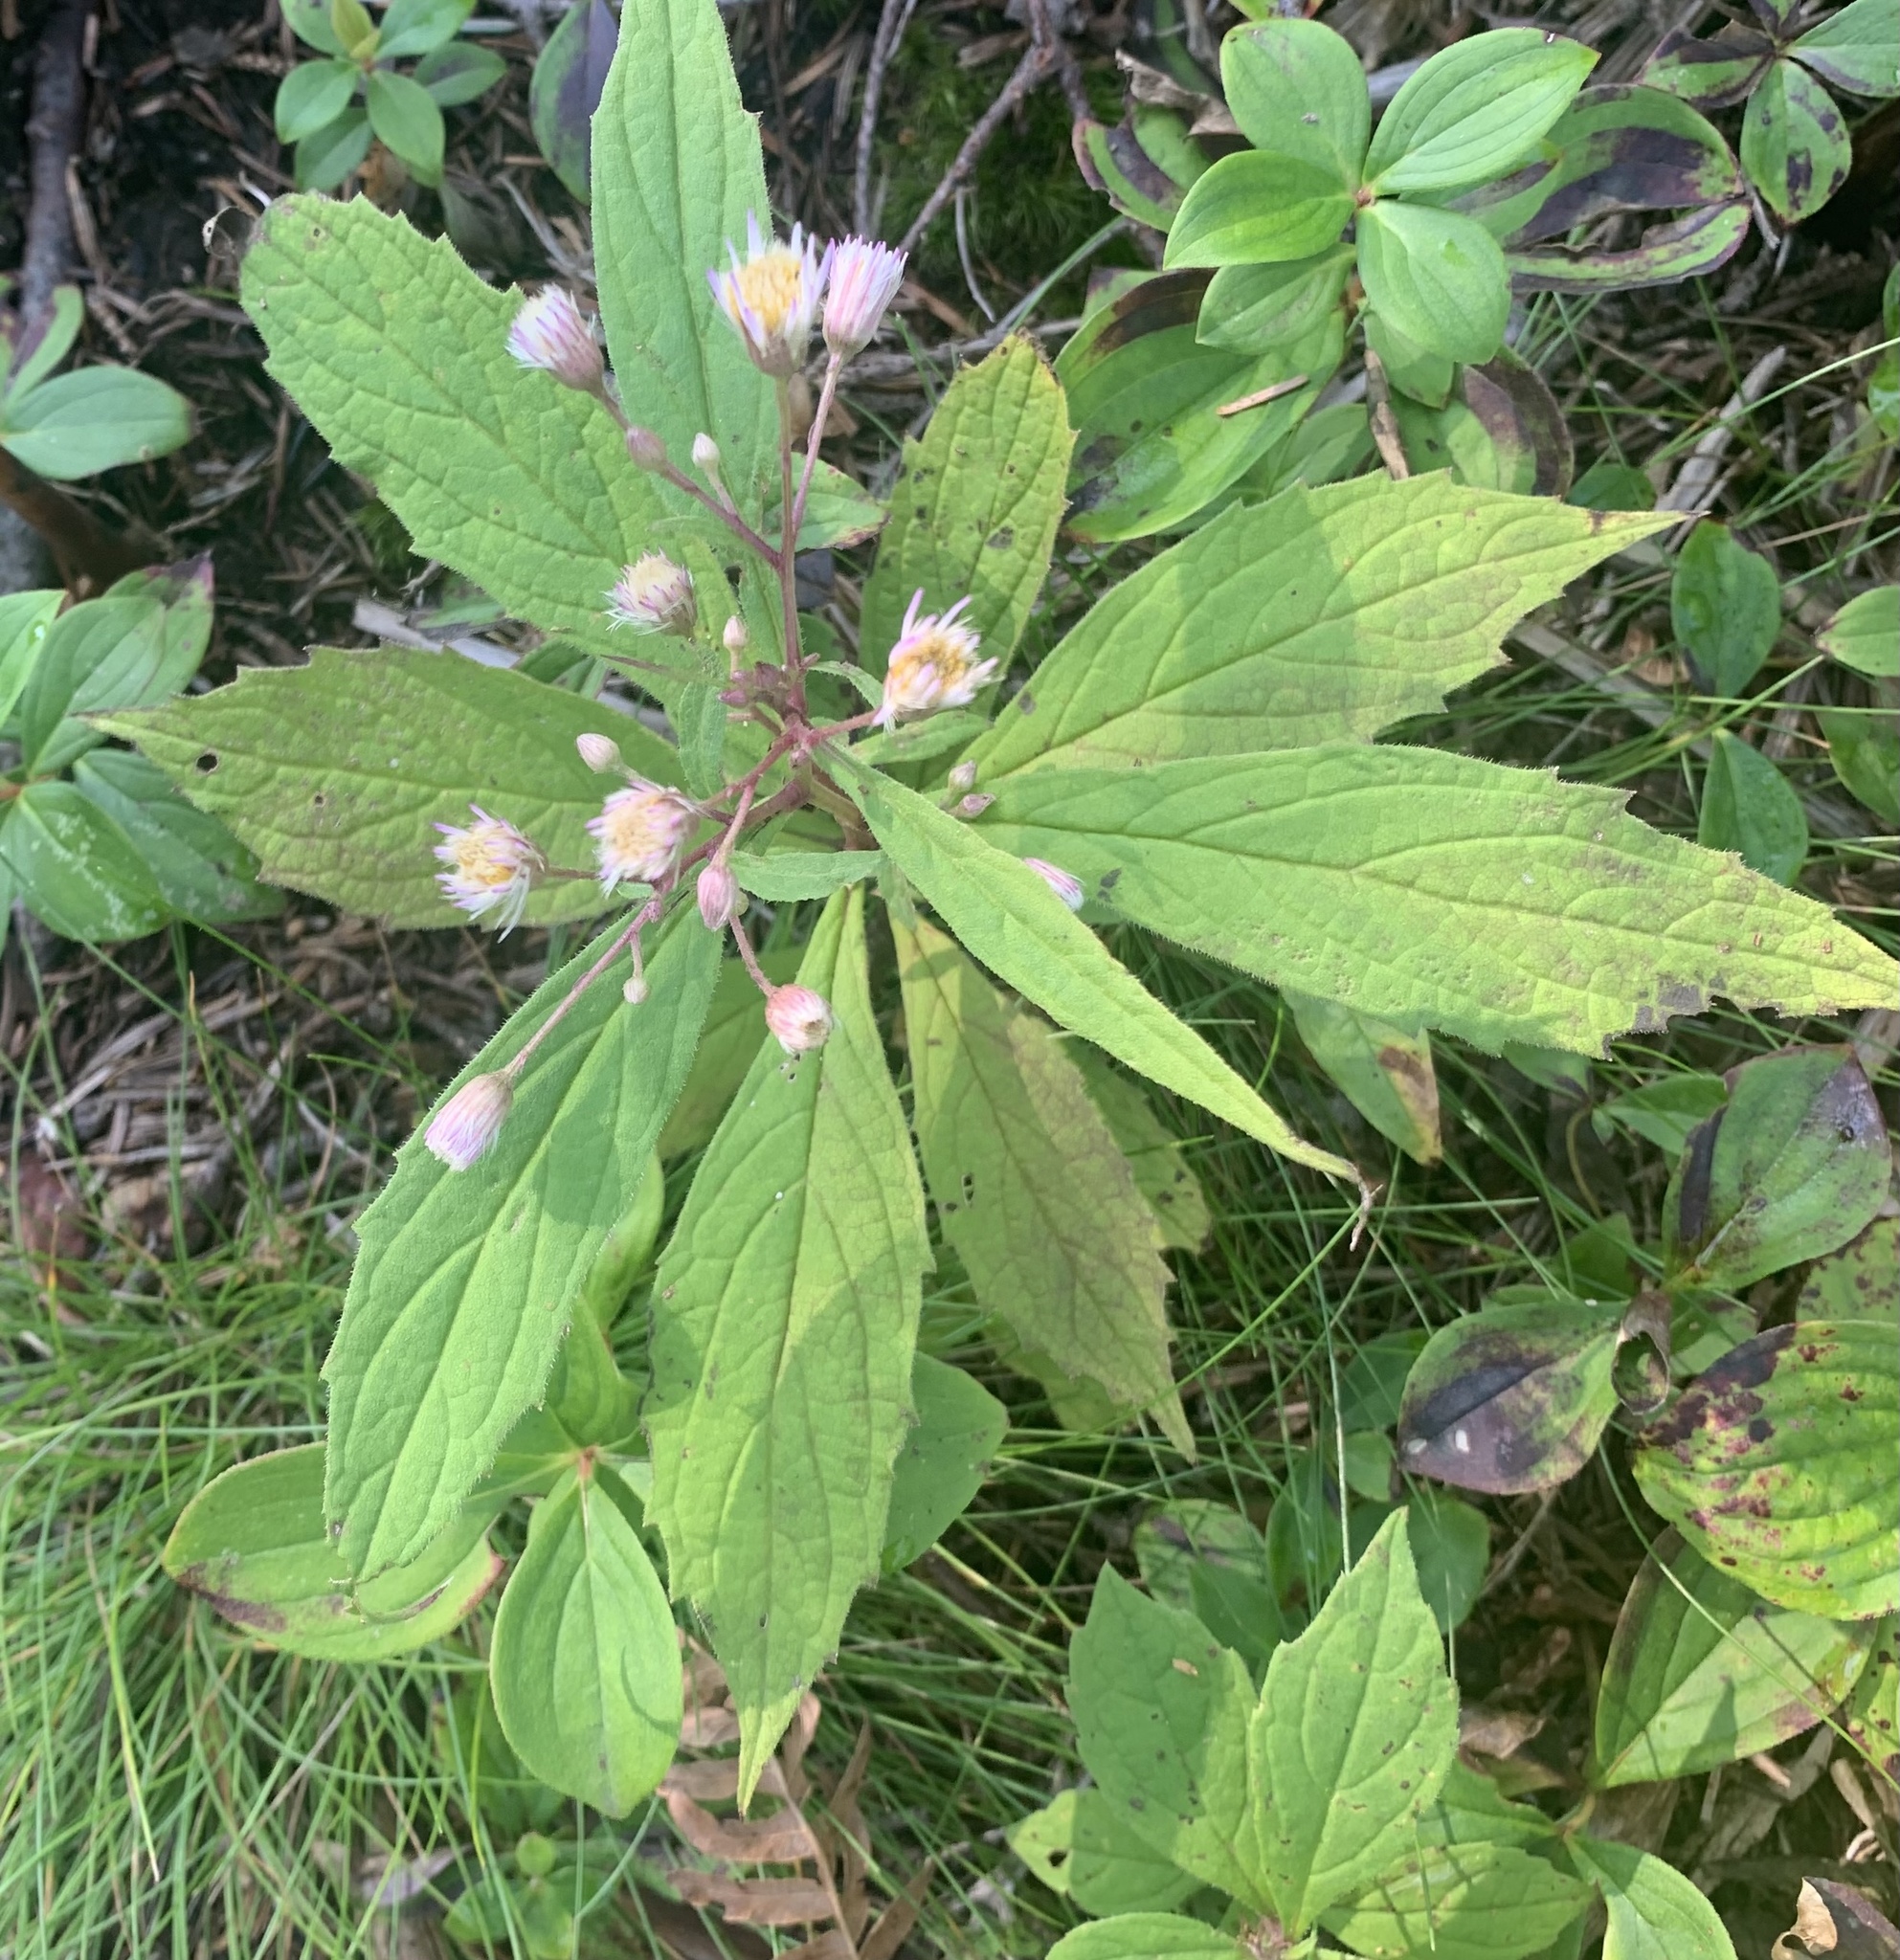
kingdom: Plantae
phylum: Tracheophyta
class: Magnoliopsida
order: Asterales
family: Asteraceae
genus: Oclemena
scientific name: Oclemena acuminata
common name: Mountain aster
